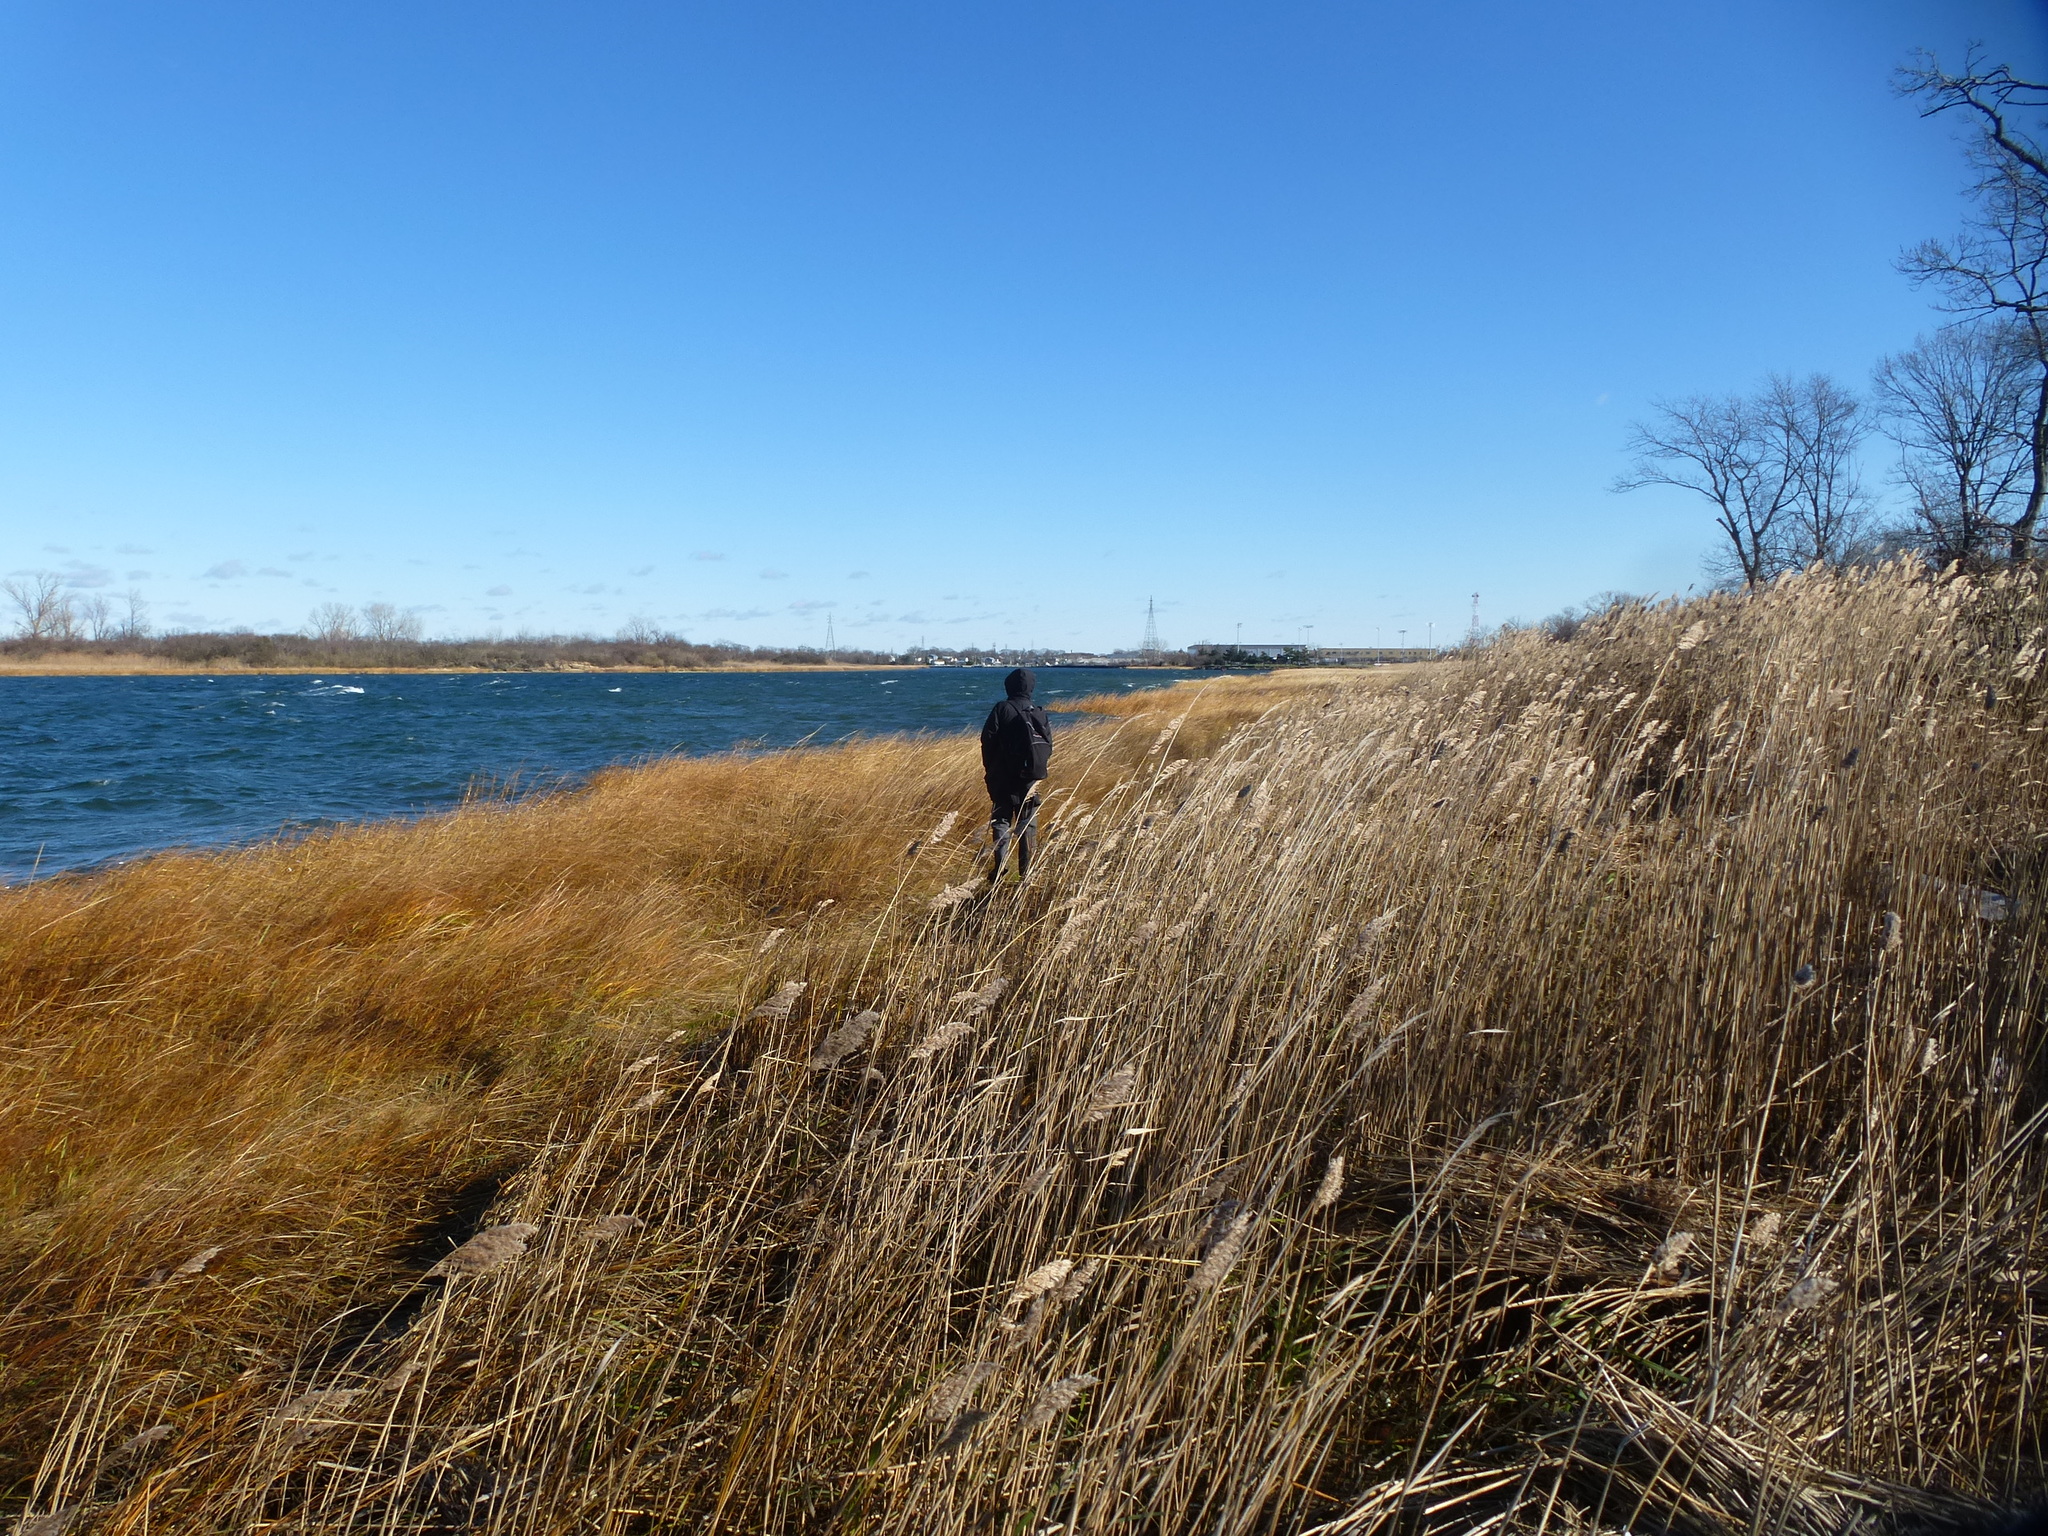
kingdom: Plantae
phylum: Tracheophyta
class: Liliopsida
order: Poales
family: Poaceae
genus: Phragmites
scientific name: Phragmites australis
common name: Common reed
